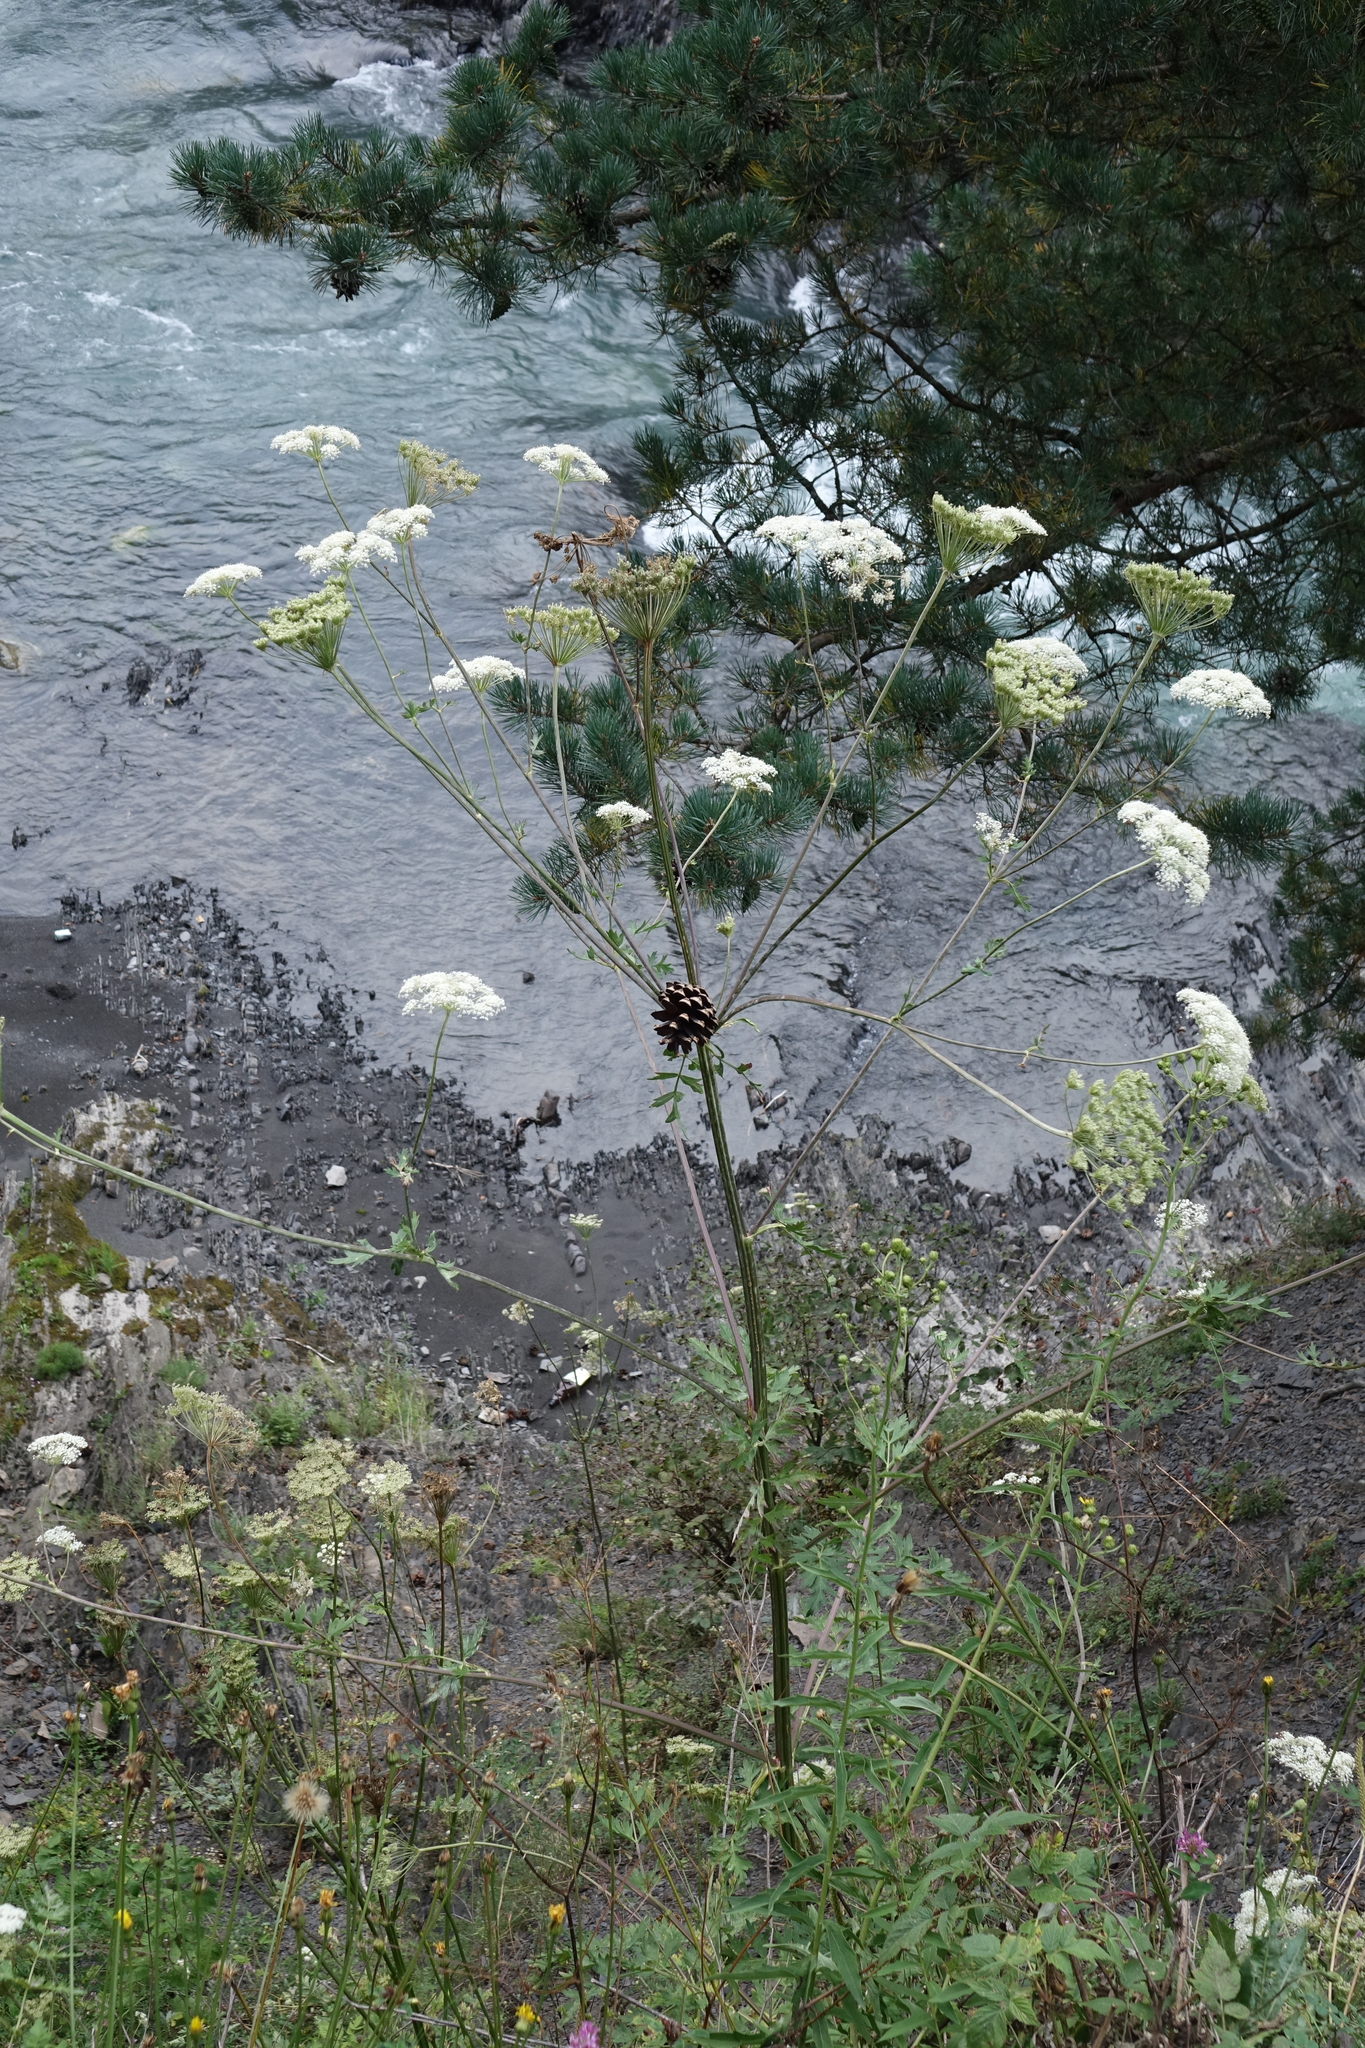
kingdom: Plantae
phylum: Tracheophyta
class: Magnoliopsida
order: Apiales
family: Apiaceae
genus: Seseli
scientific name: Seseli libanotis
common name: Mooncarrot
